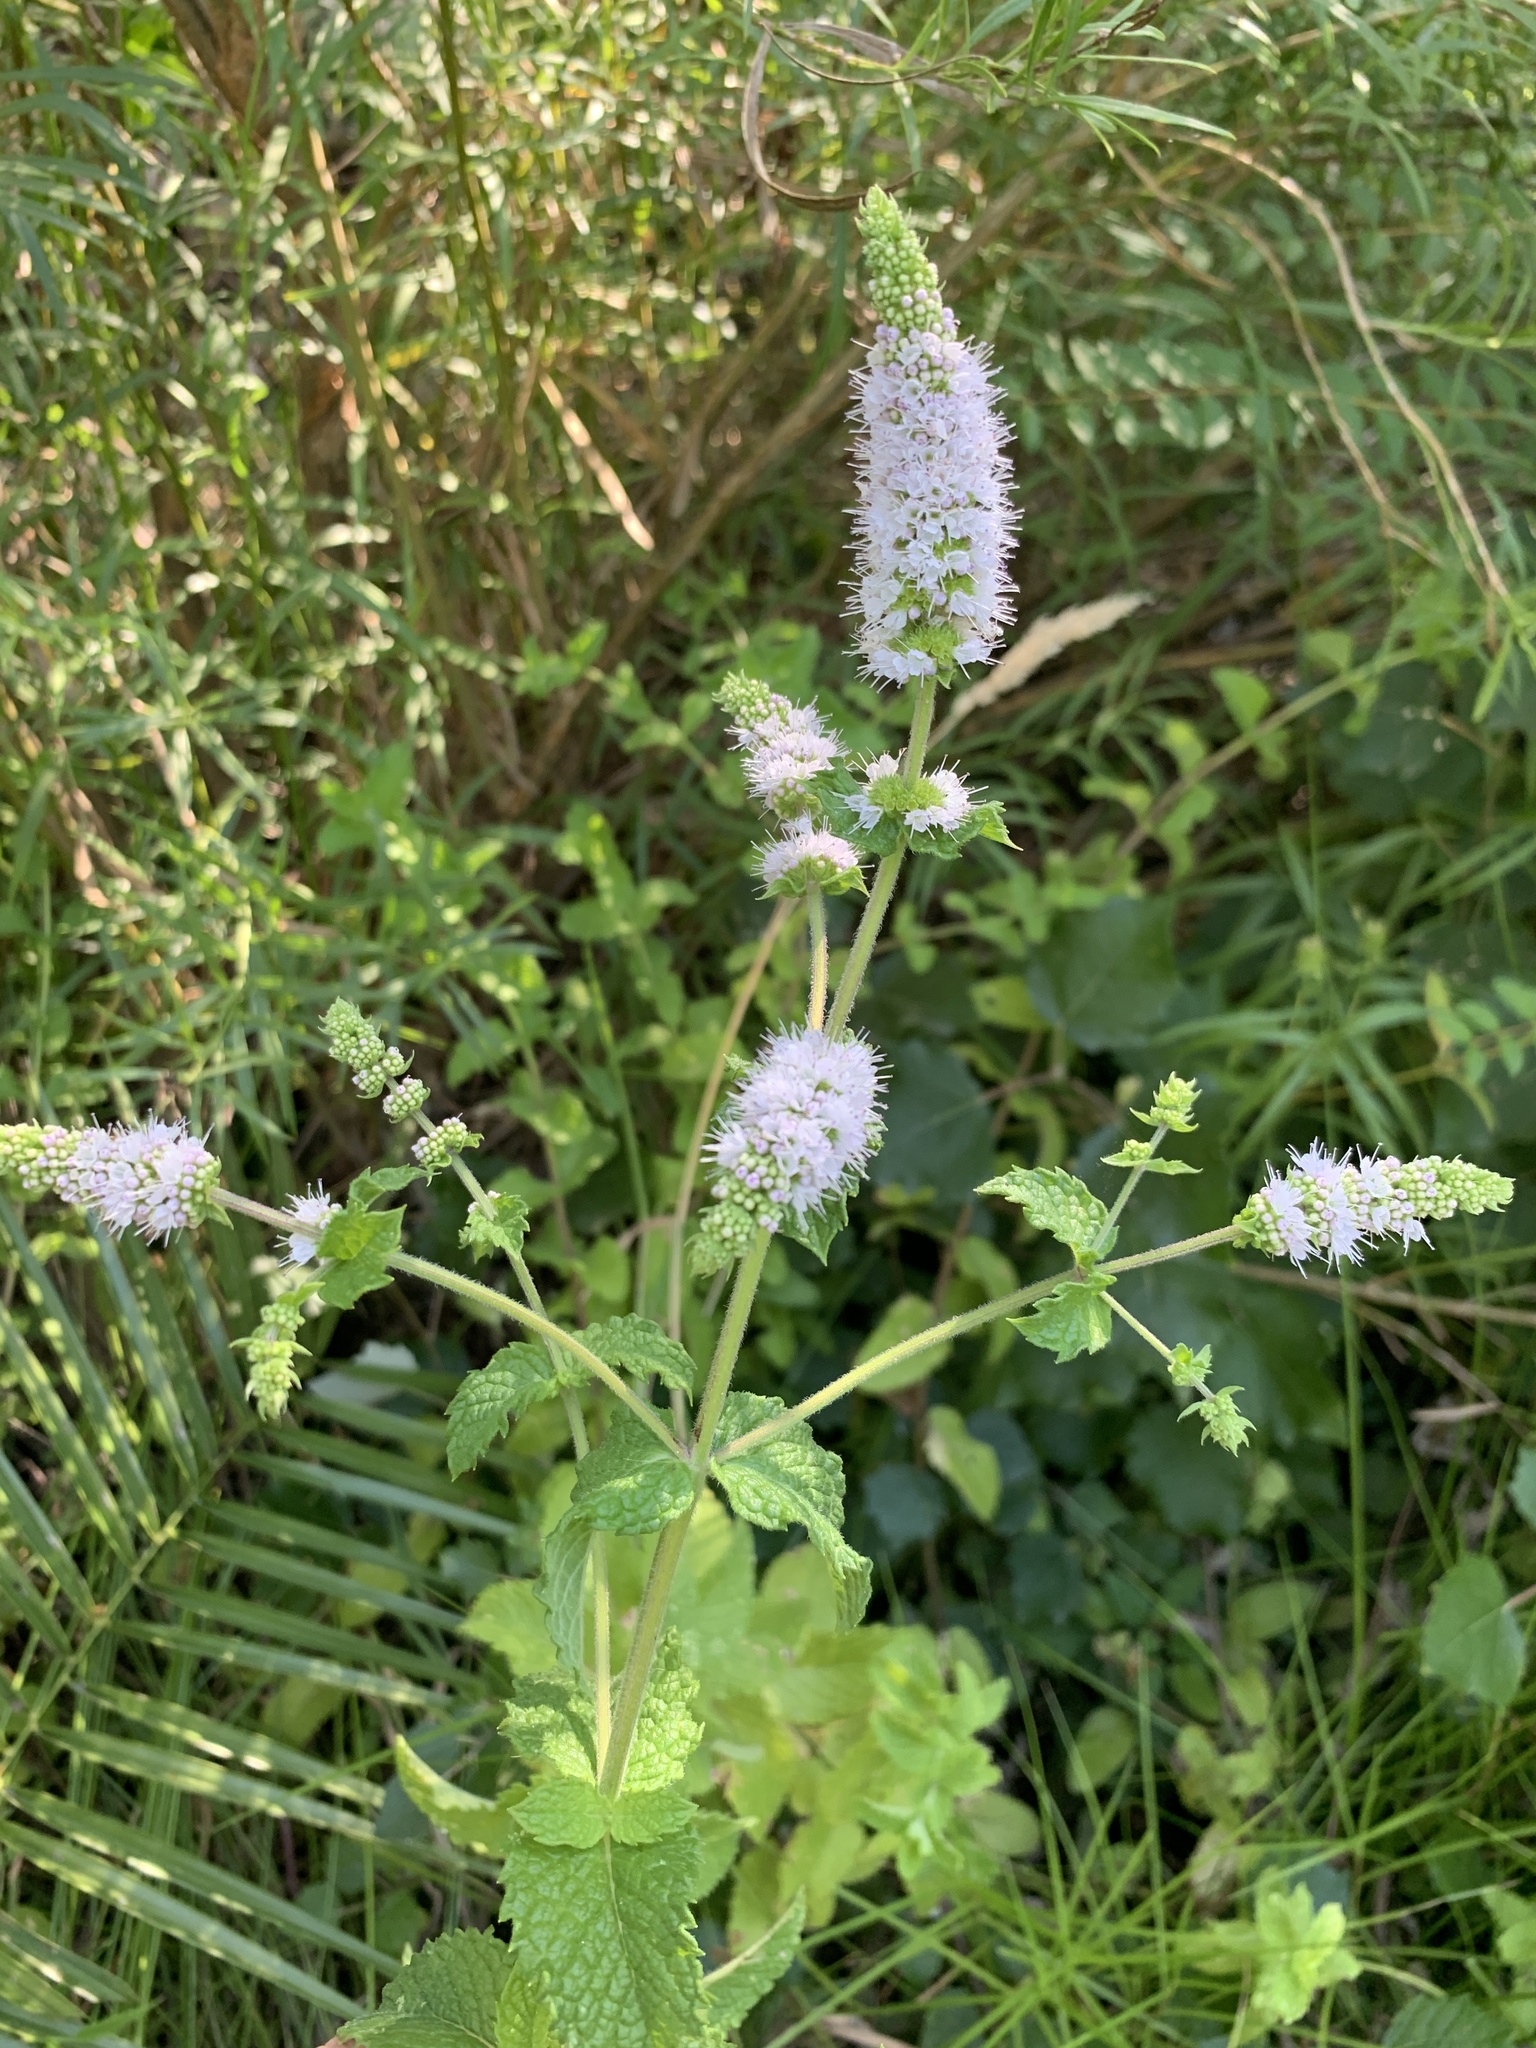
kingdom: Plantae
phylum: Tracheophyta
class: Magnoliopsida
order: Lamiales
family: Lamiaceae
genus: Mentha
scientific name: Mentha villosa-nervata
